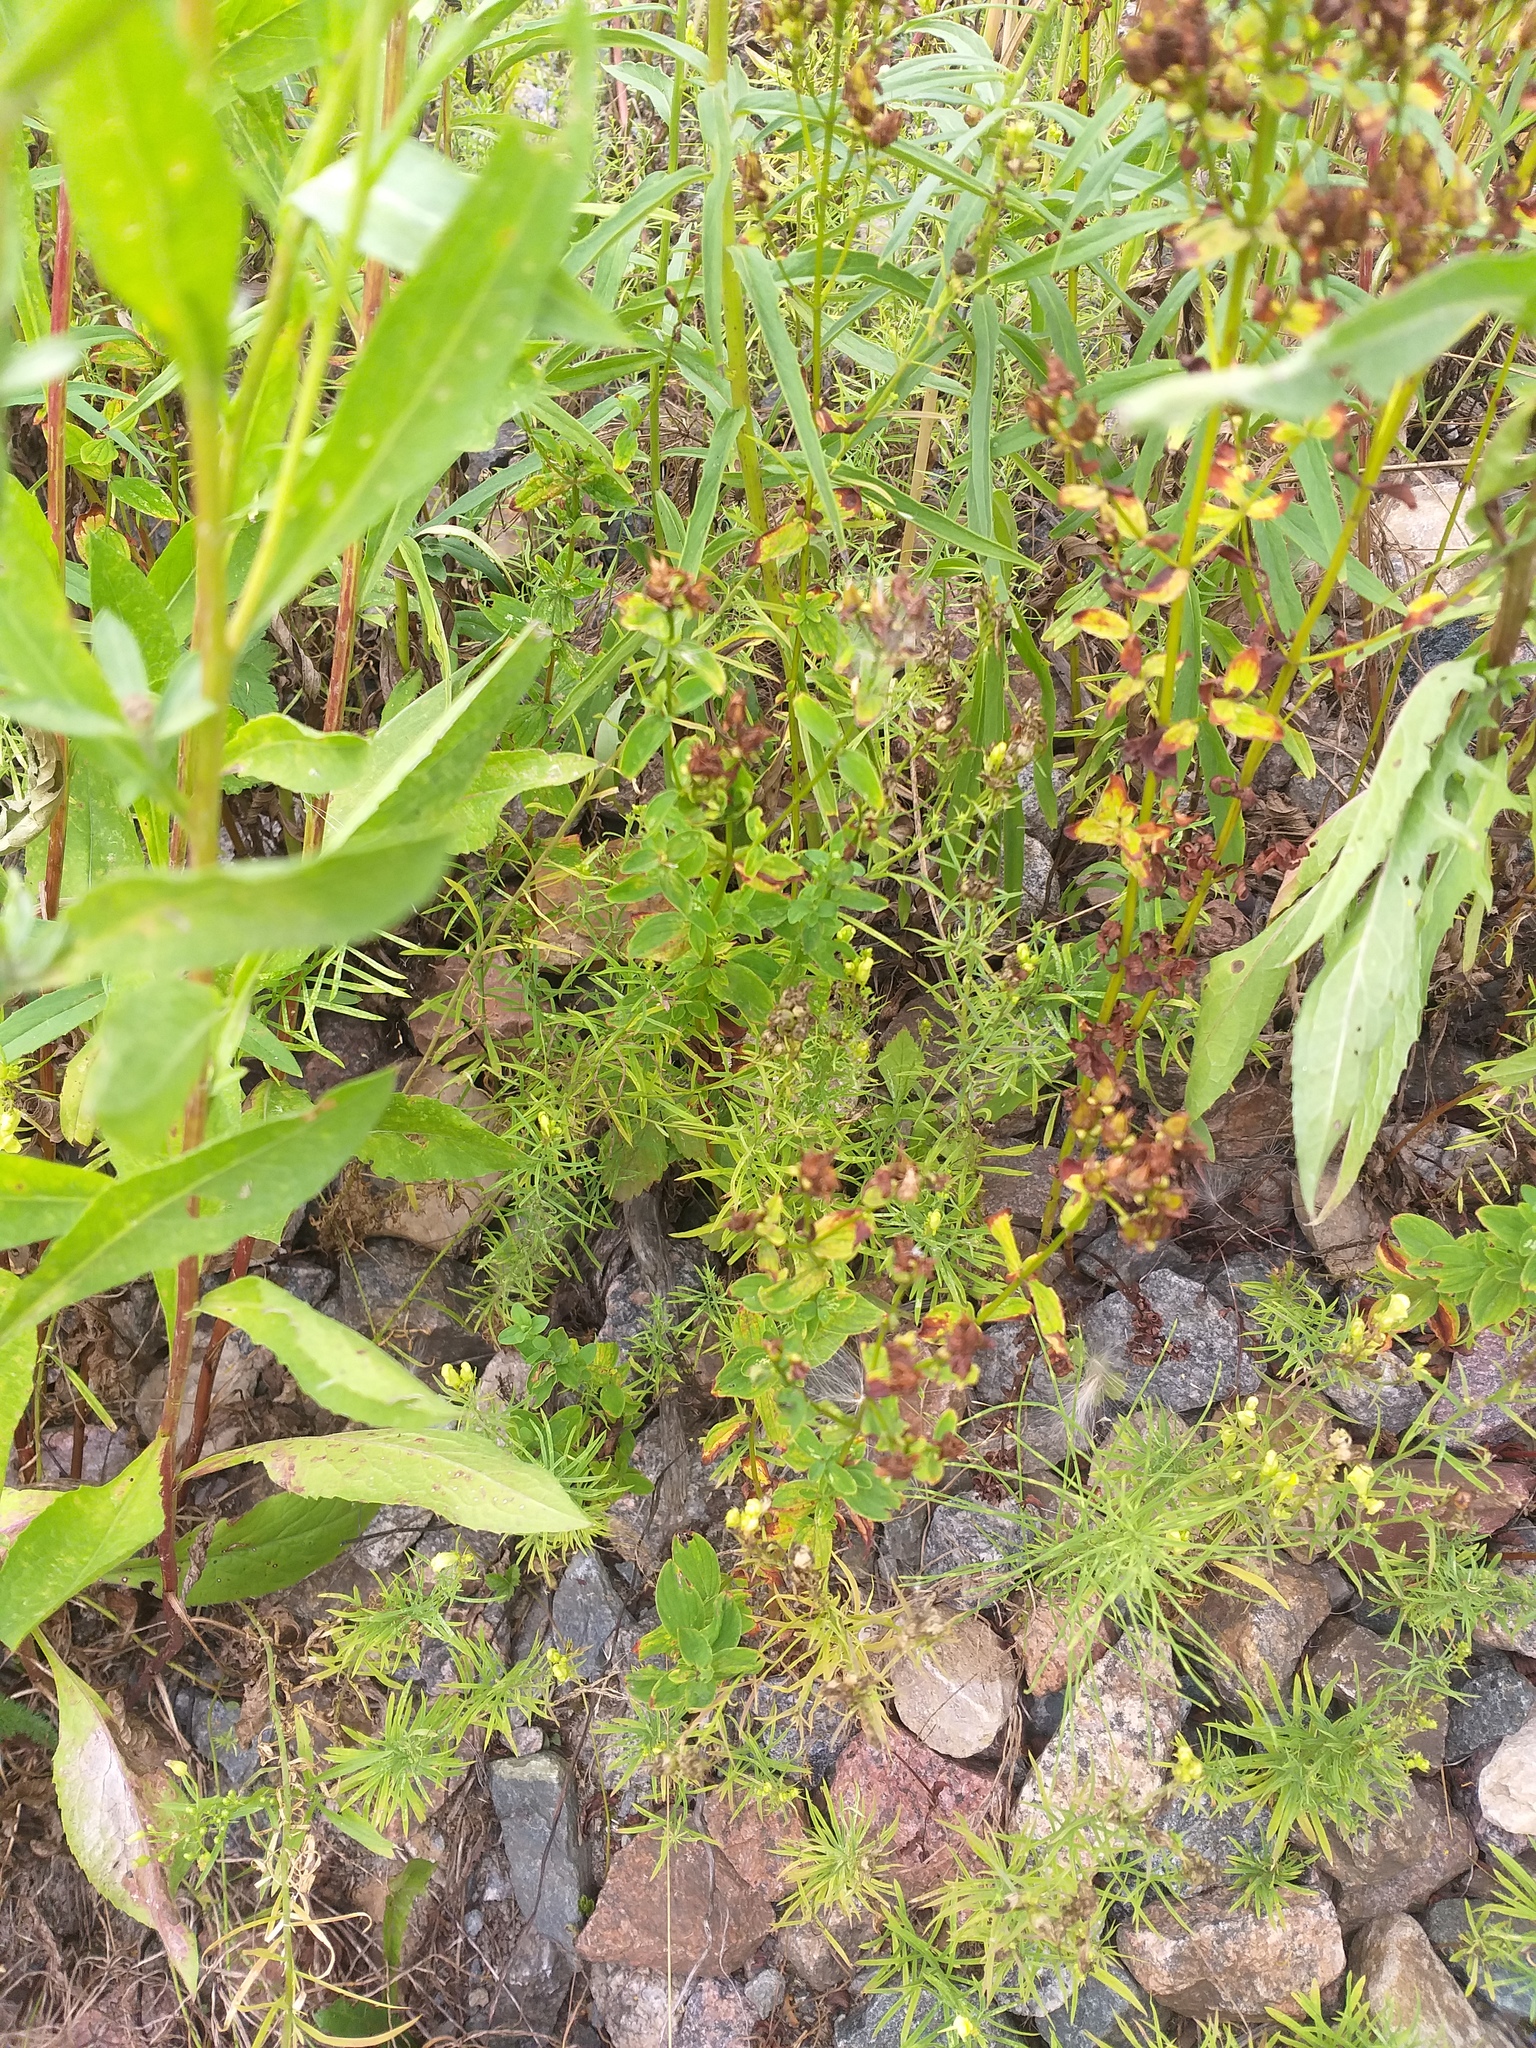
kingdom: Plantae
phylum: Tracheophyta
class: Magnoliopsida
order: Malpighiales
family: Hypericaceae
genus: Hypericum
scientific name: Hypericum maculatum
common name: Imperforate st. john's-wort
